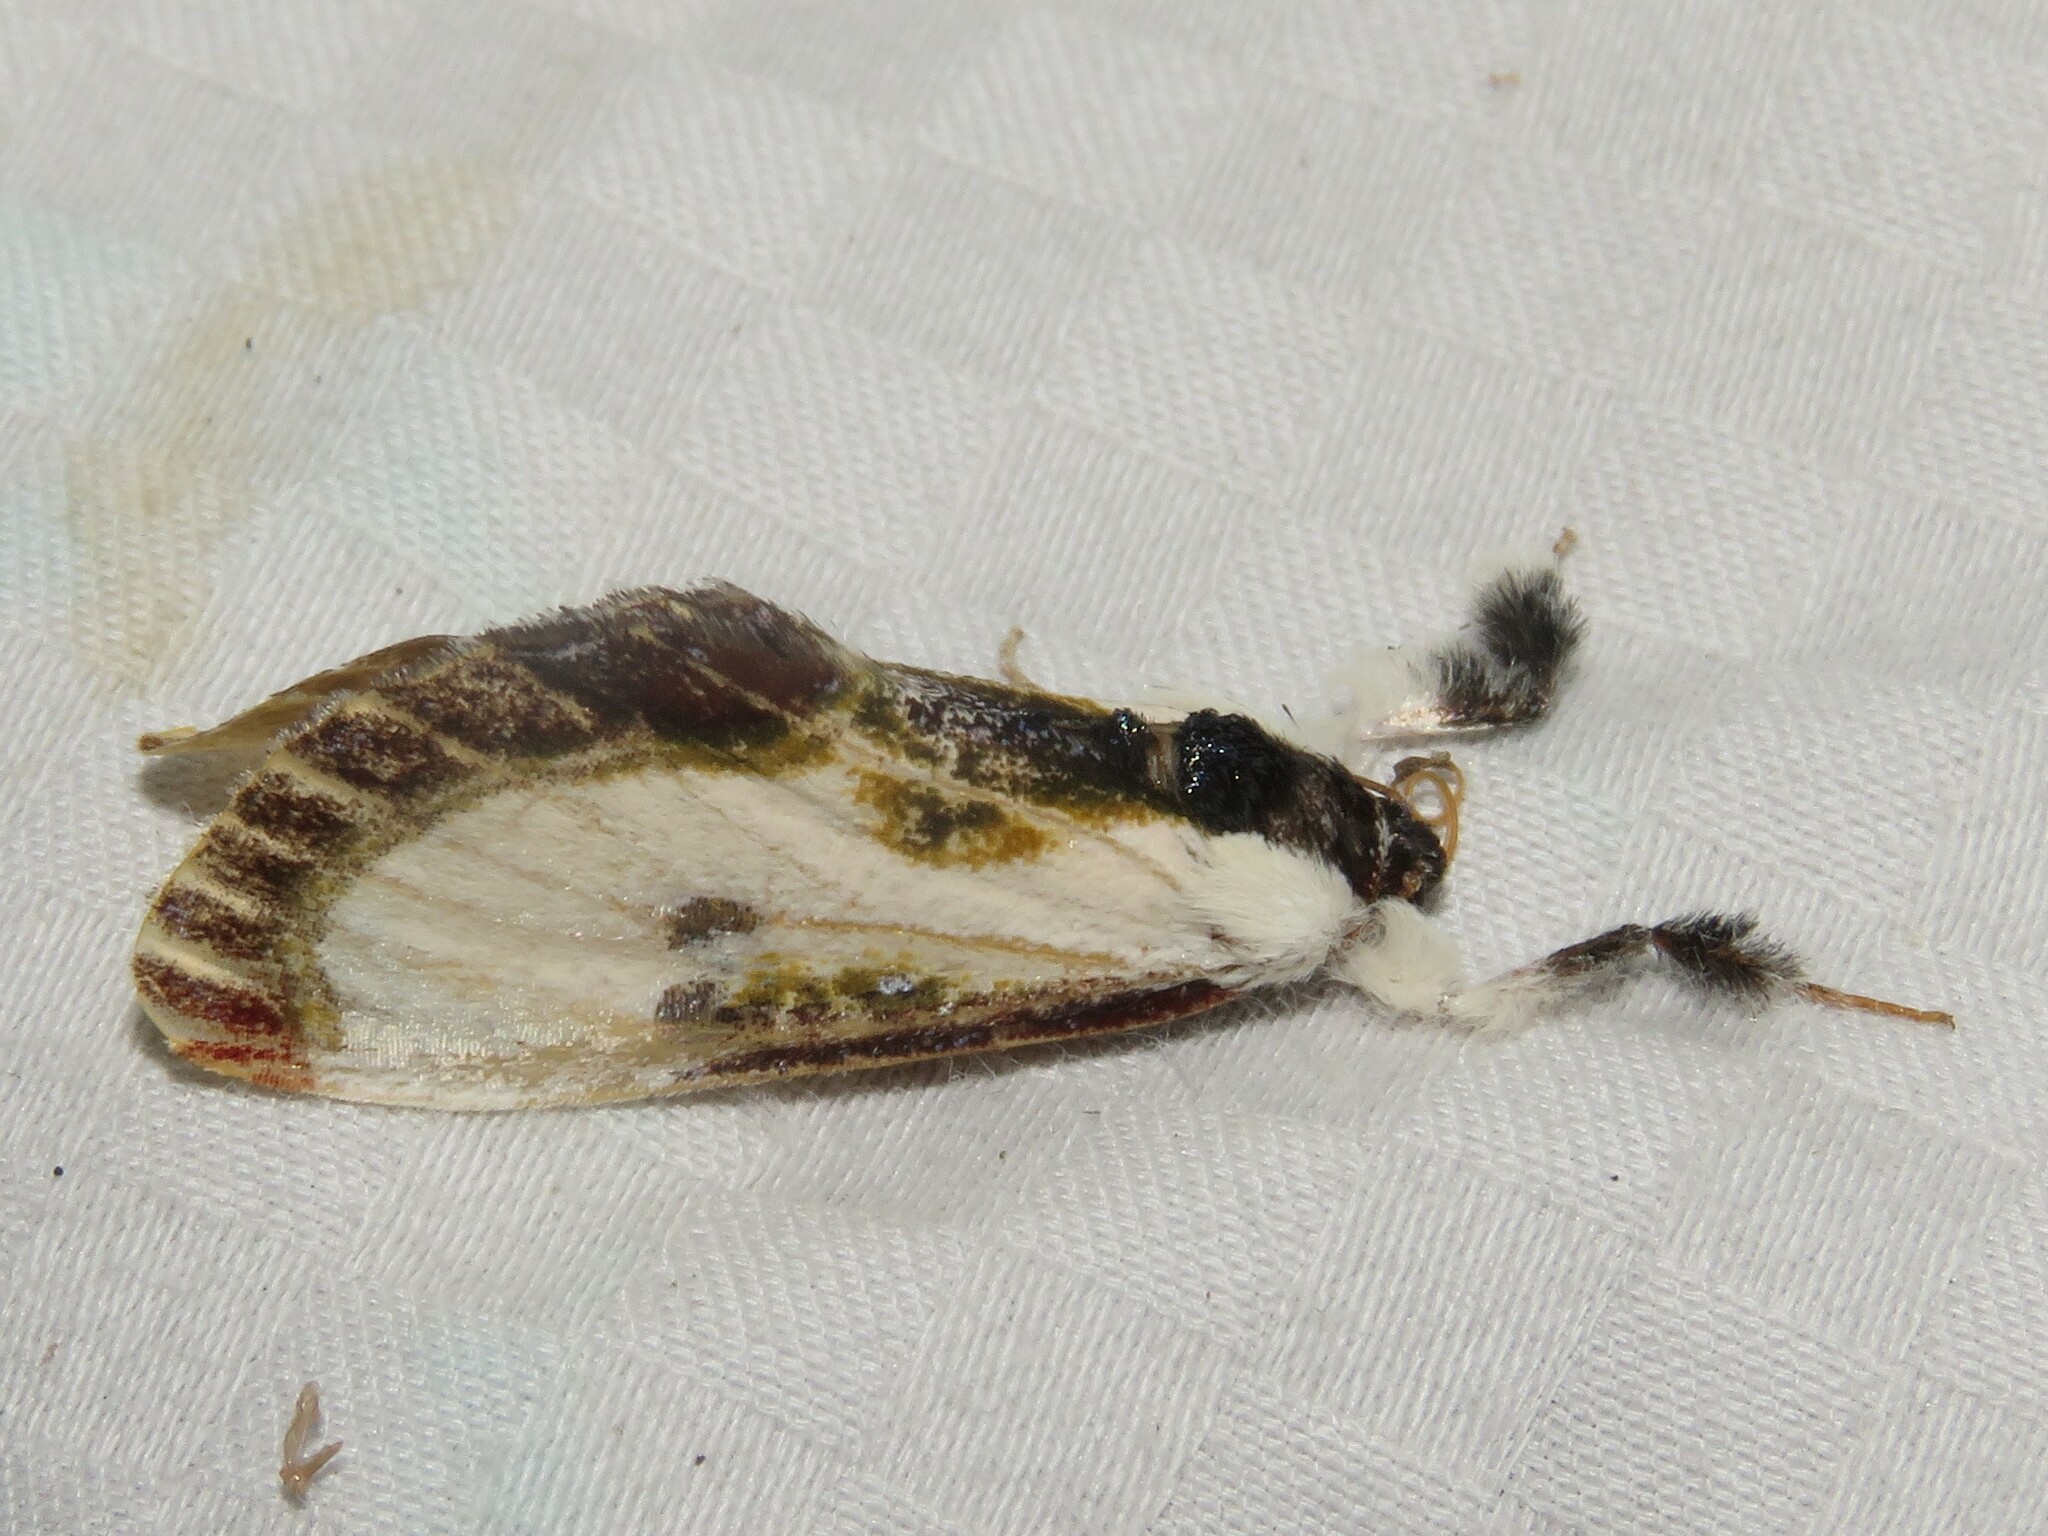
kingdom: Animalia
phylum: Arthropoda
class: Insecta
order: Lepidoptera
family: Noctuidae
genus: Eudryas
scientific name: Eudryas grata
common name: Beautiful wood-nymph
